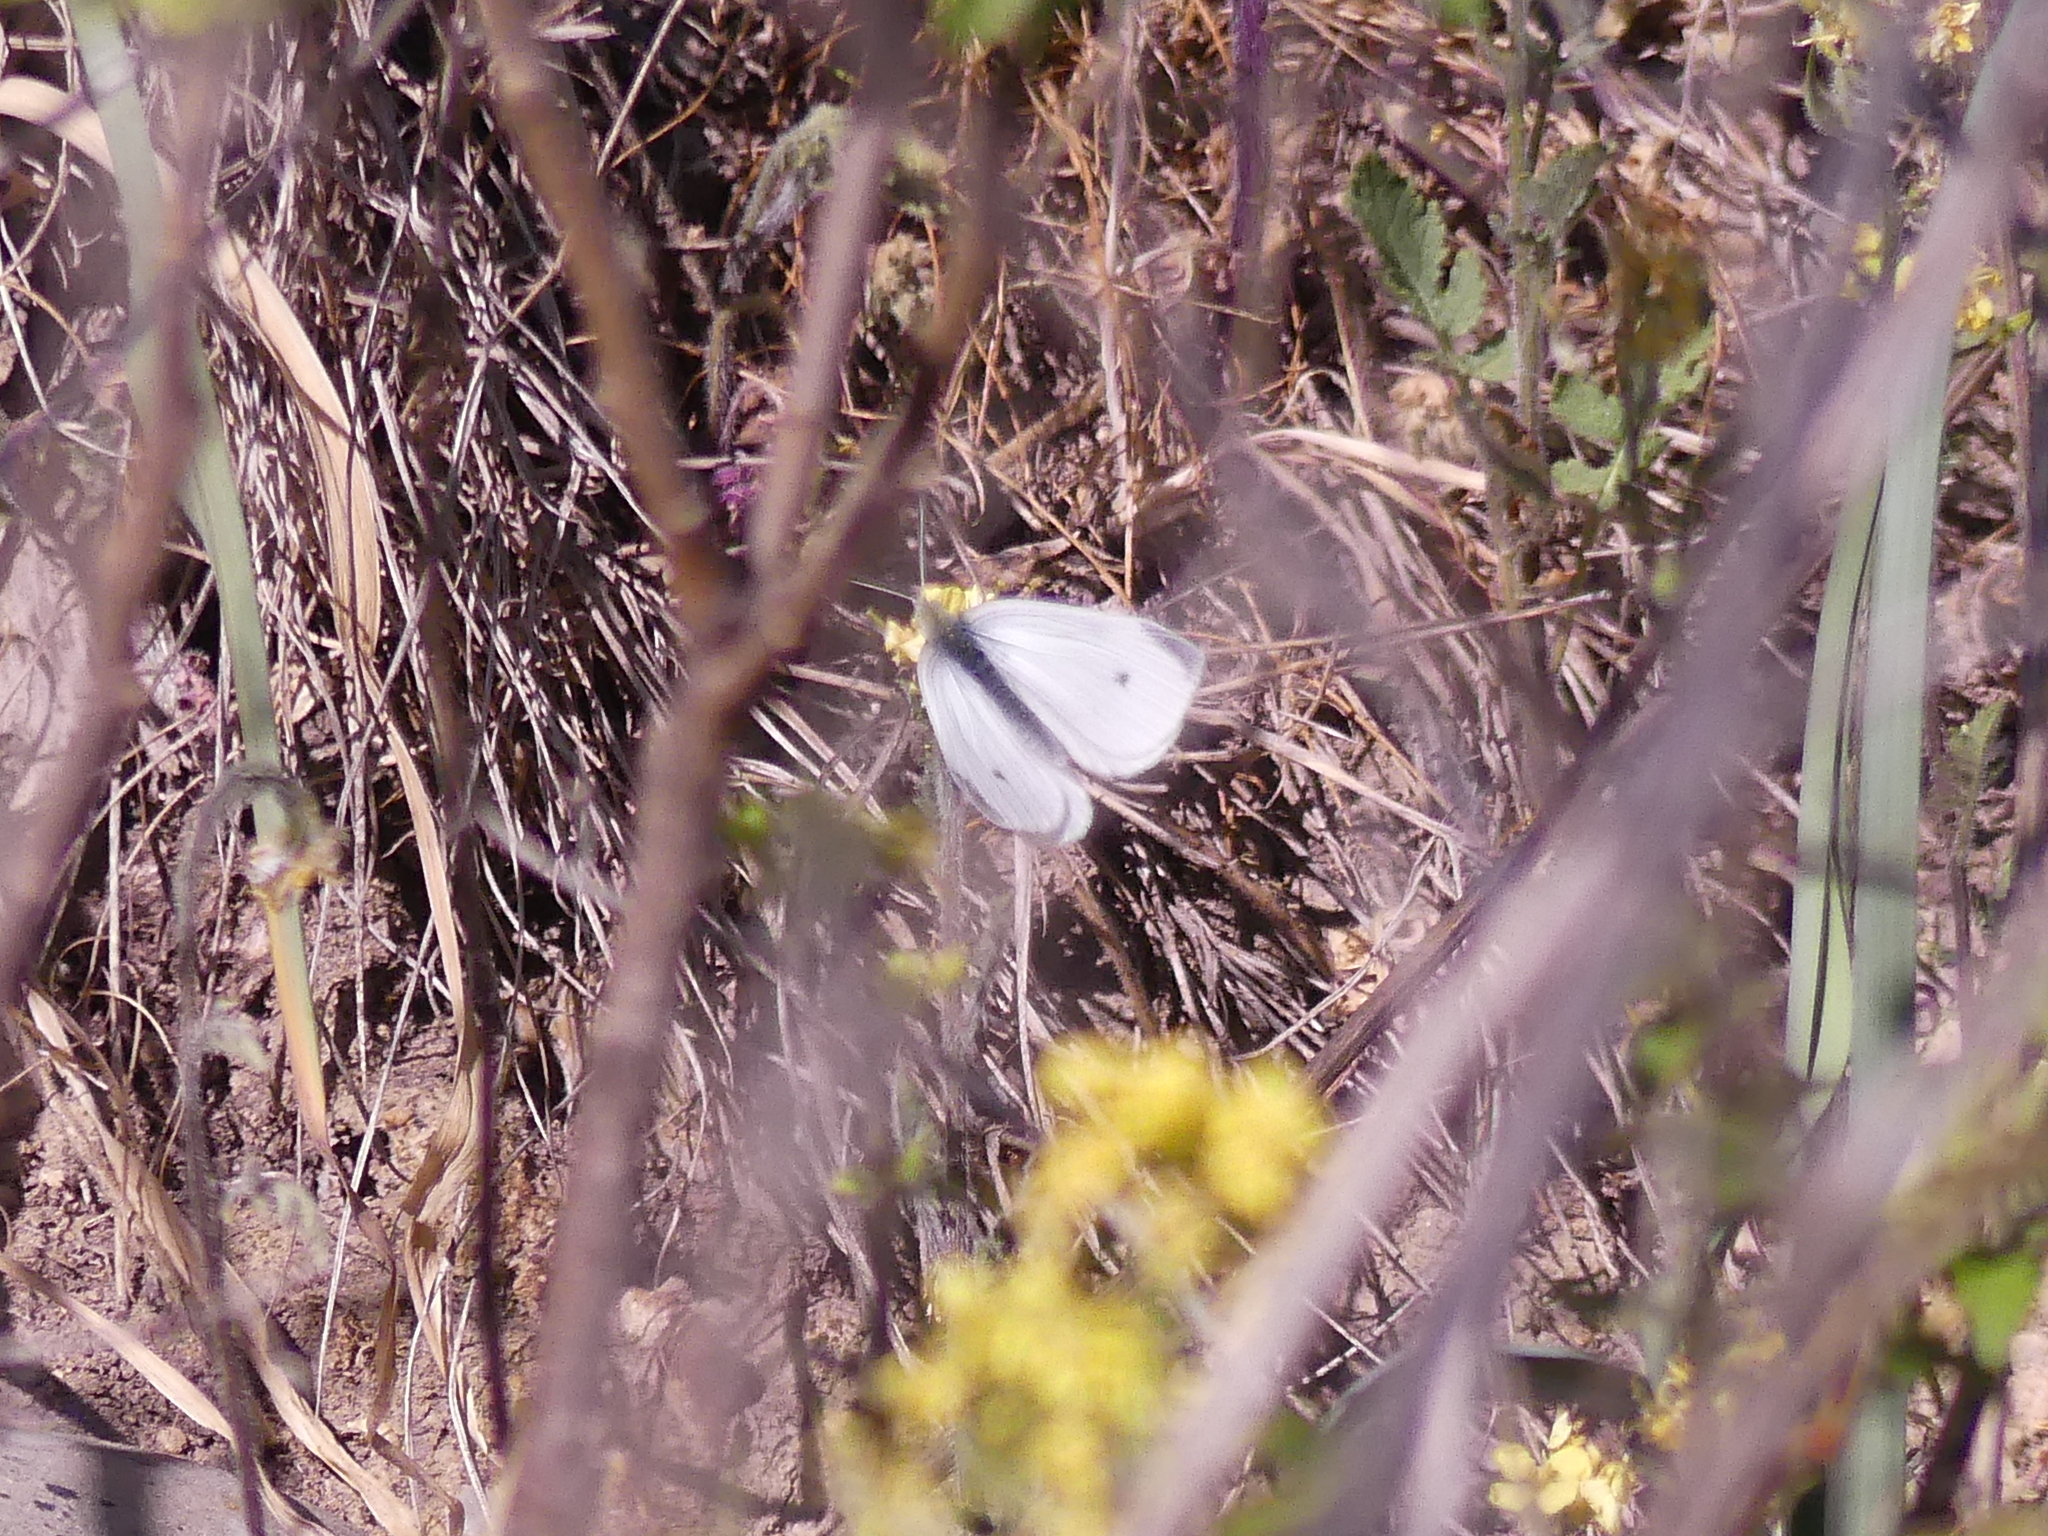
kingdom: Animalia
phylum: Arthropoda
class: Insecta
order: Lepidoptera
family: Pieridae
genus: Pieris
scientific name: Pieris rapae
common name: Small white
